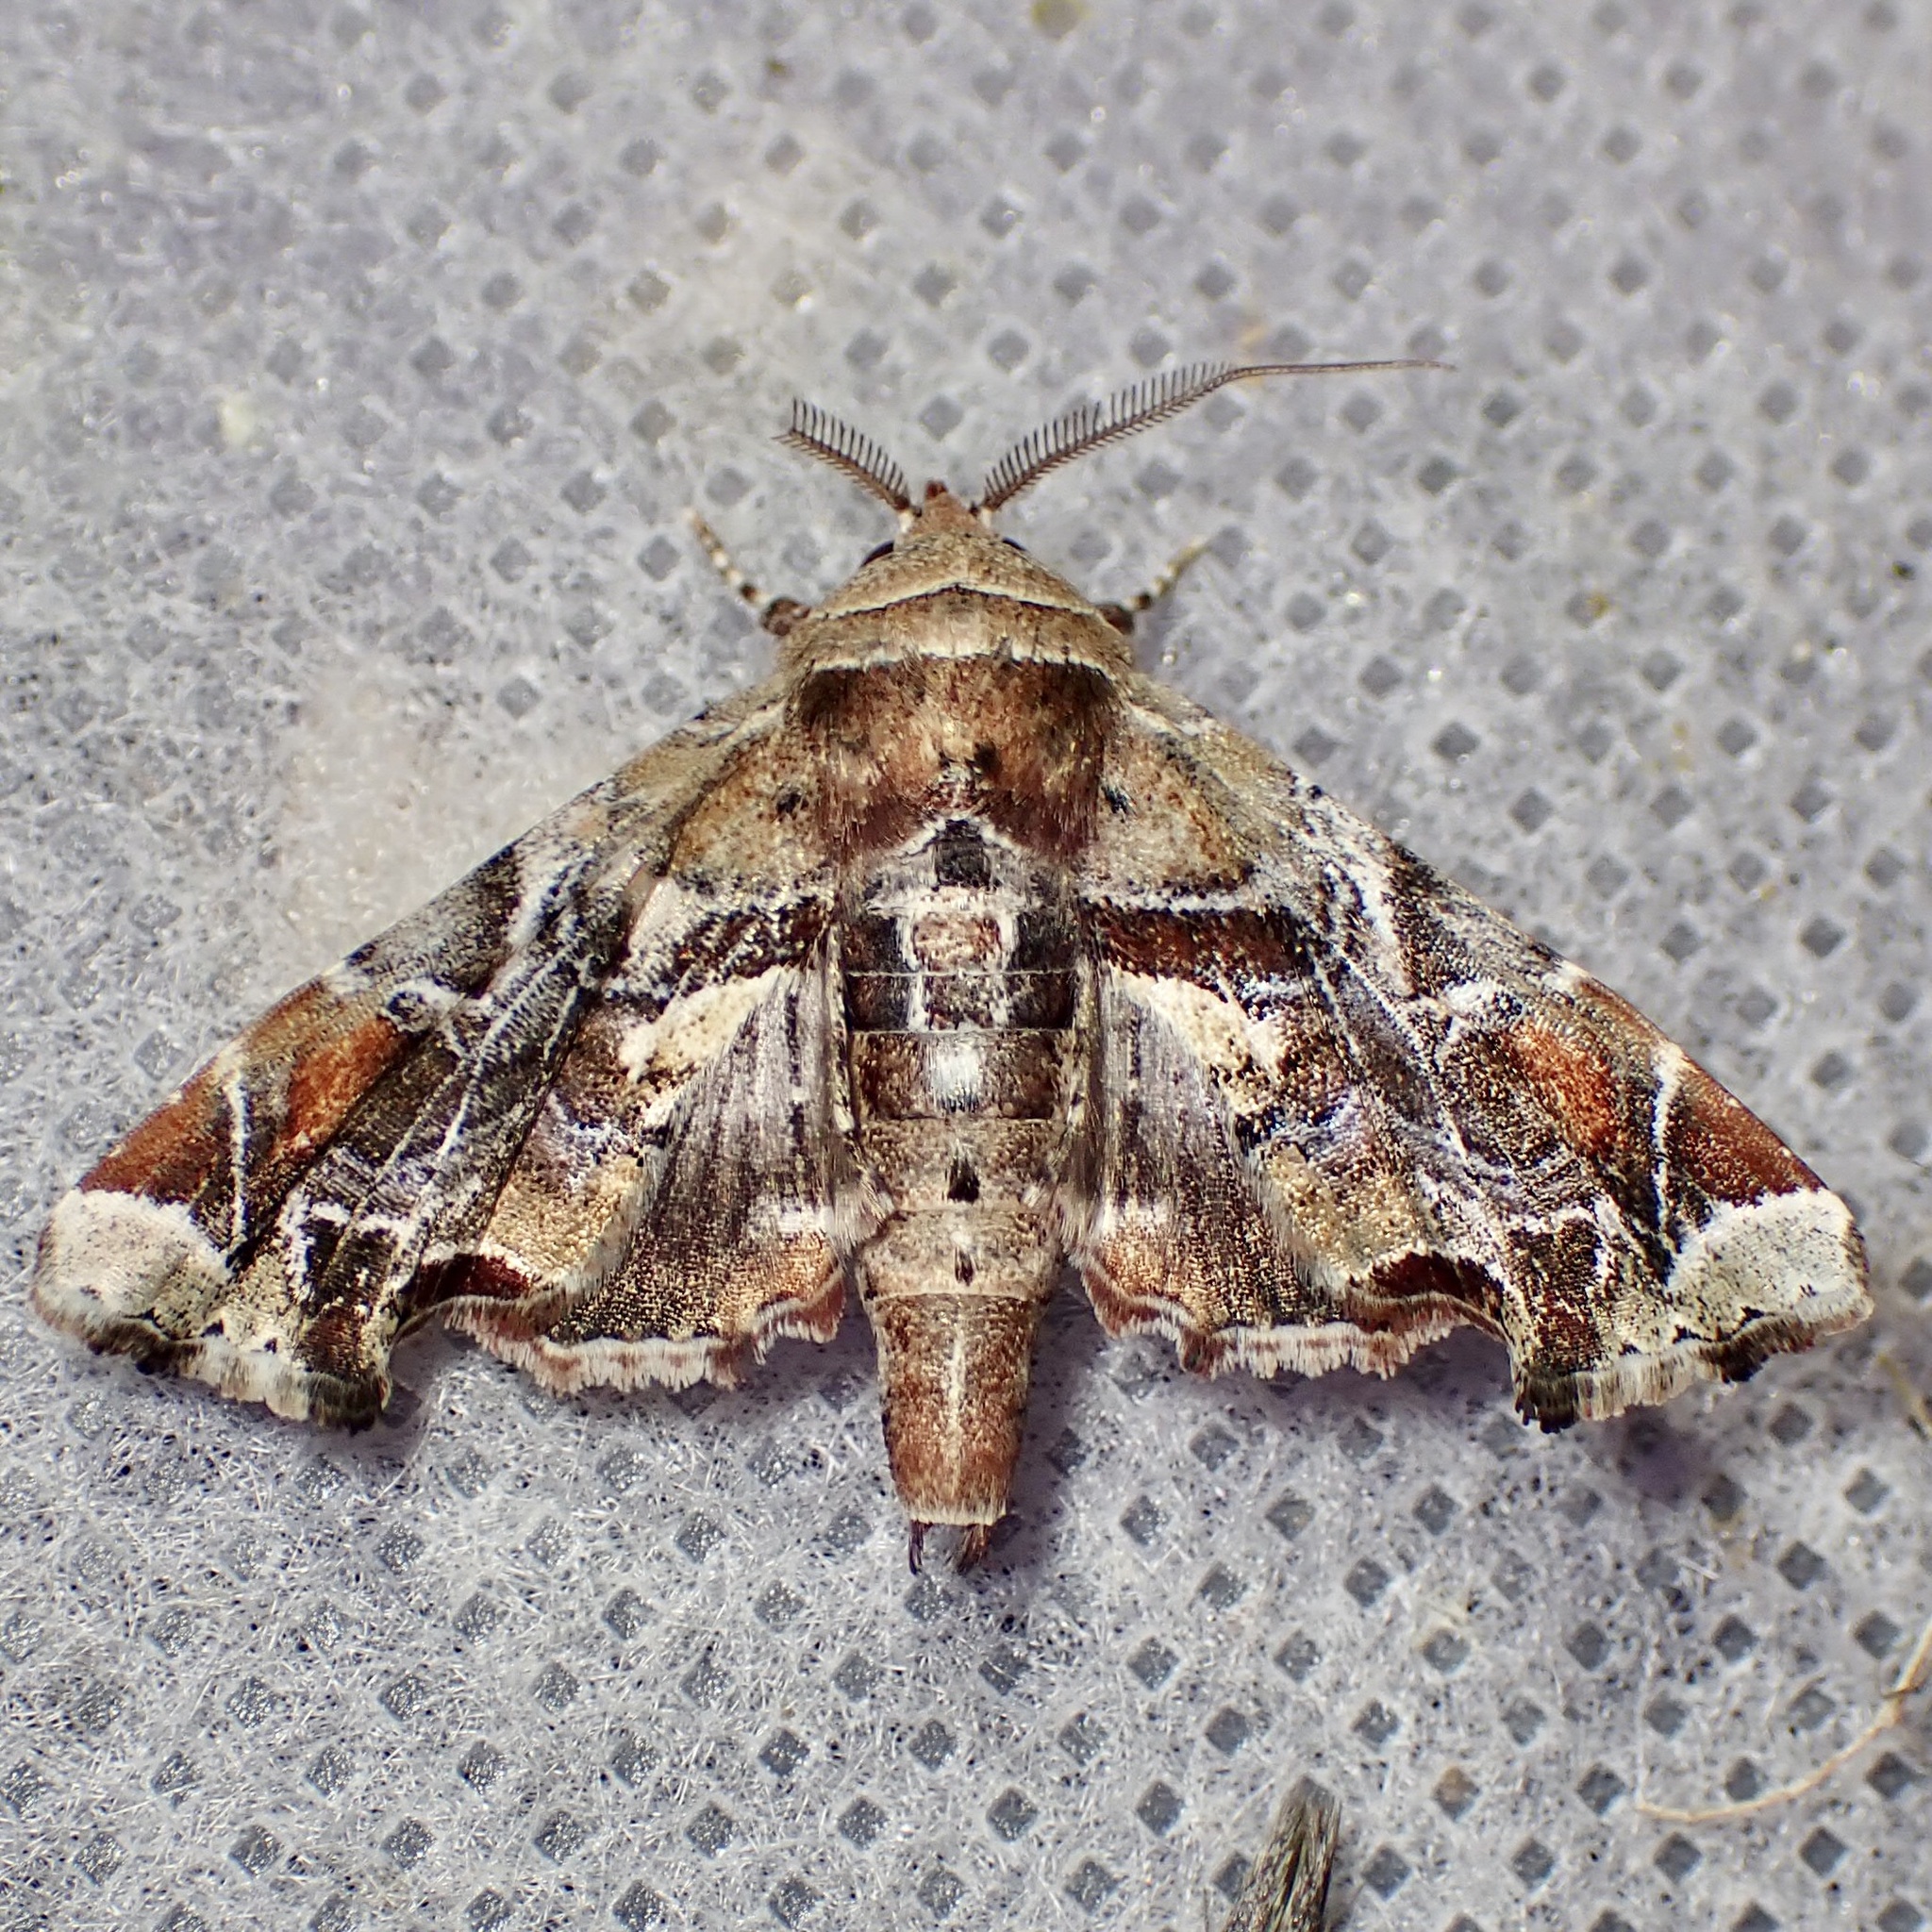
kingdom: Animalia
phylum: Arthropoda
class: Insecta
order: Lepidoptera
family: Euteliidae
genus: Eutelia
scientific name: Eutelia furcata
